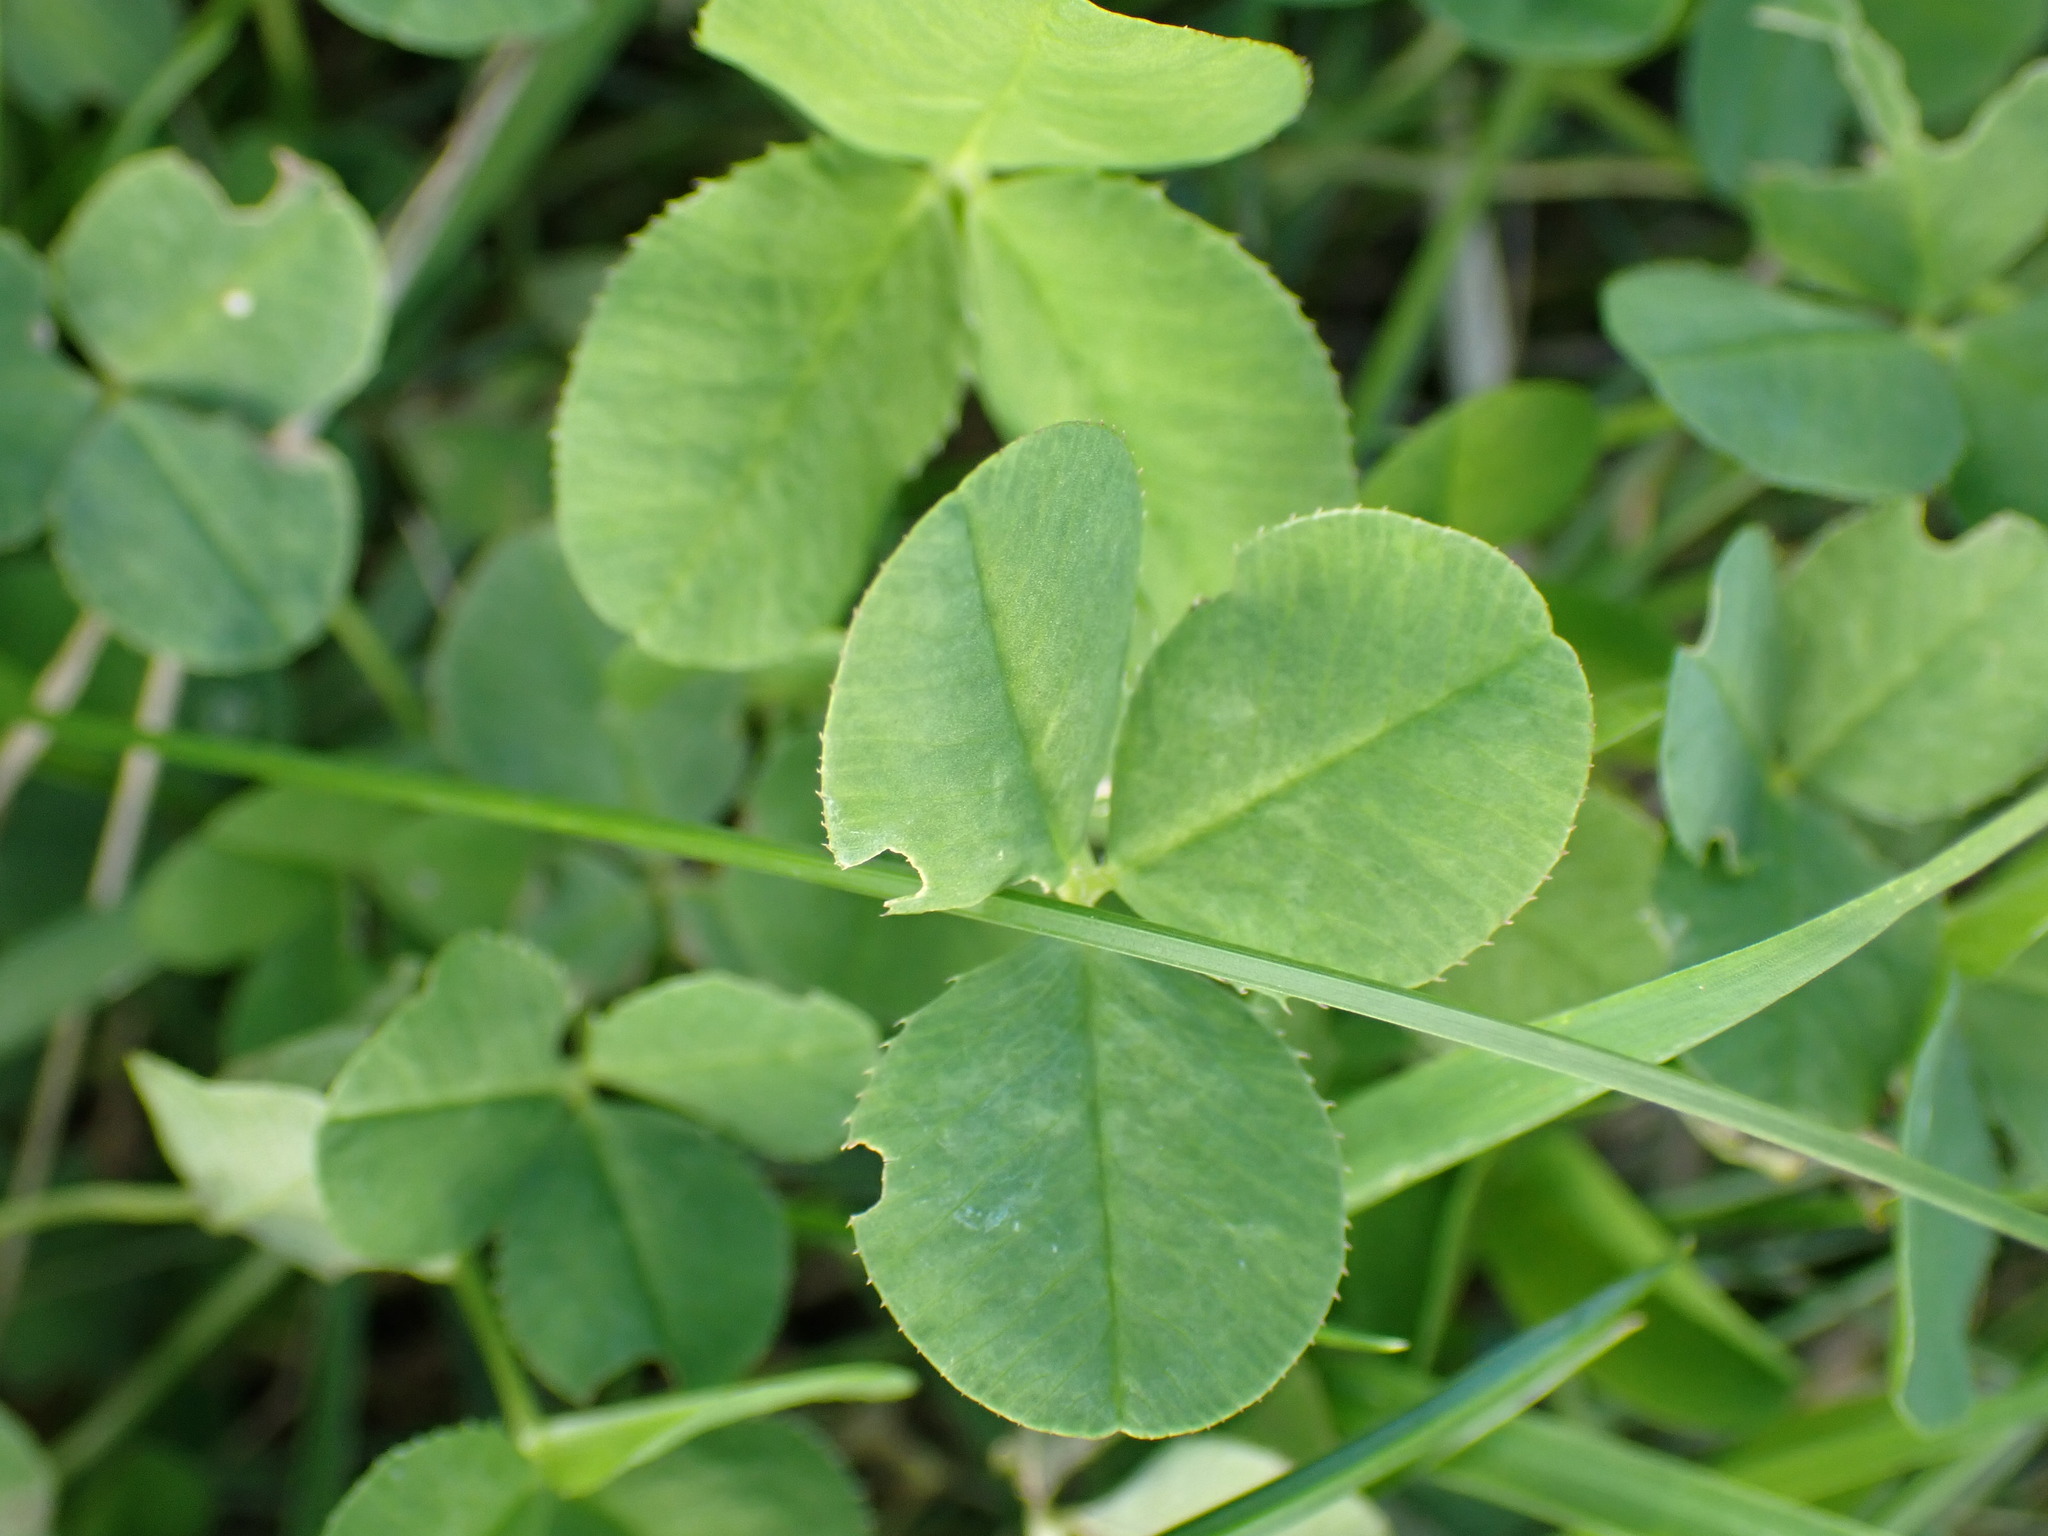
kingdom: Plantae
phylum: Tracheophyta
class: Magnoliopsida
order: Fabales
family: Fabaceae
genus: Trifolium
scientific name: Trifolium repens
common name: White clover
